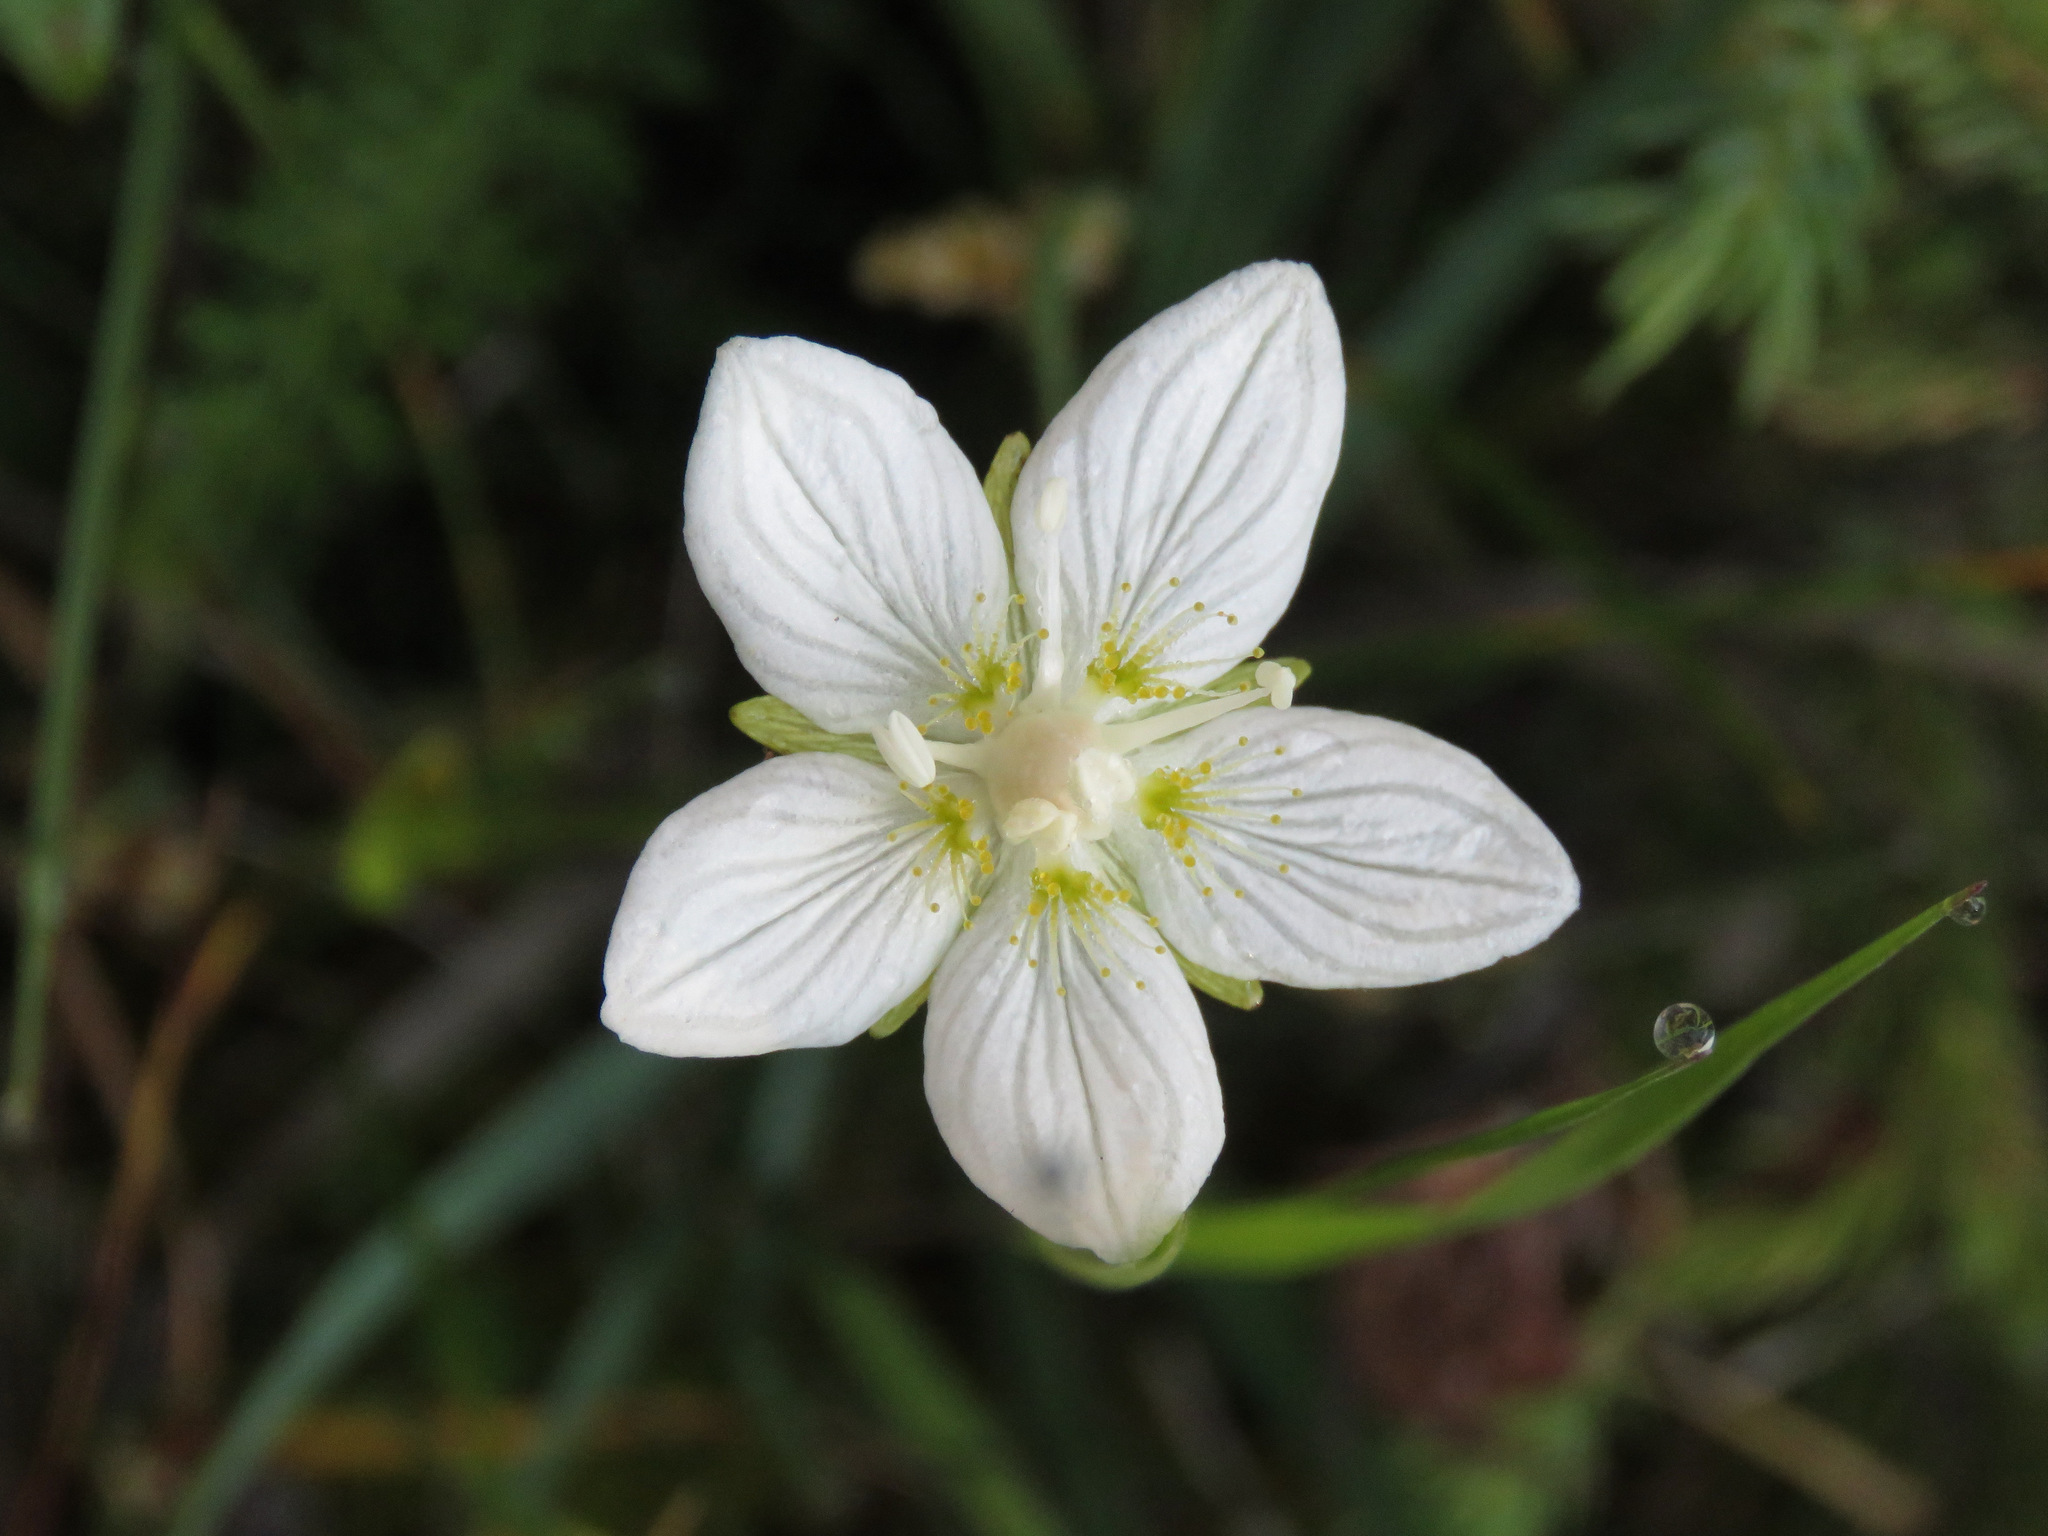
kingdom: Plantae
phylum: Tracheophyta
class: Magnoliopsida
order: Celastrales
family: Parnassiaceae
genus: Parnassia
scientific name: Parnassia palustris
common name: Grass-of-parnassus
